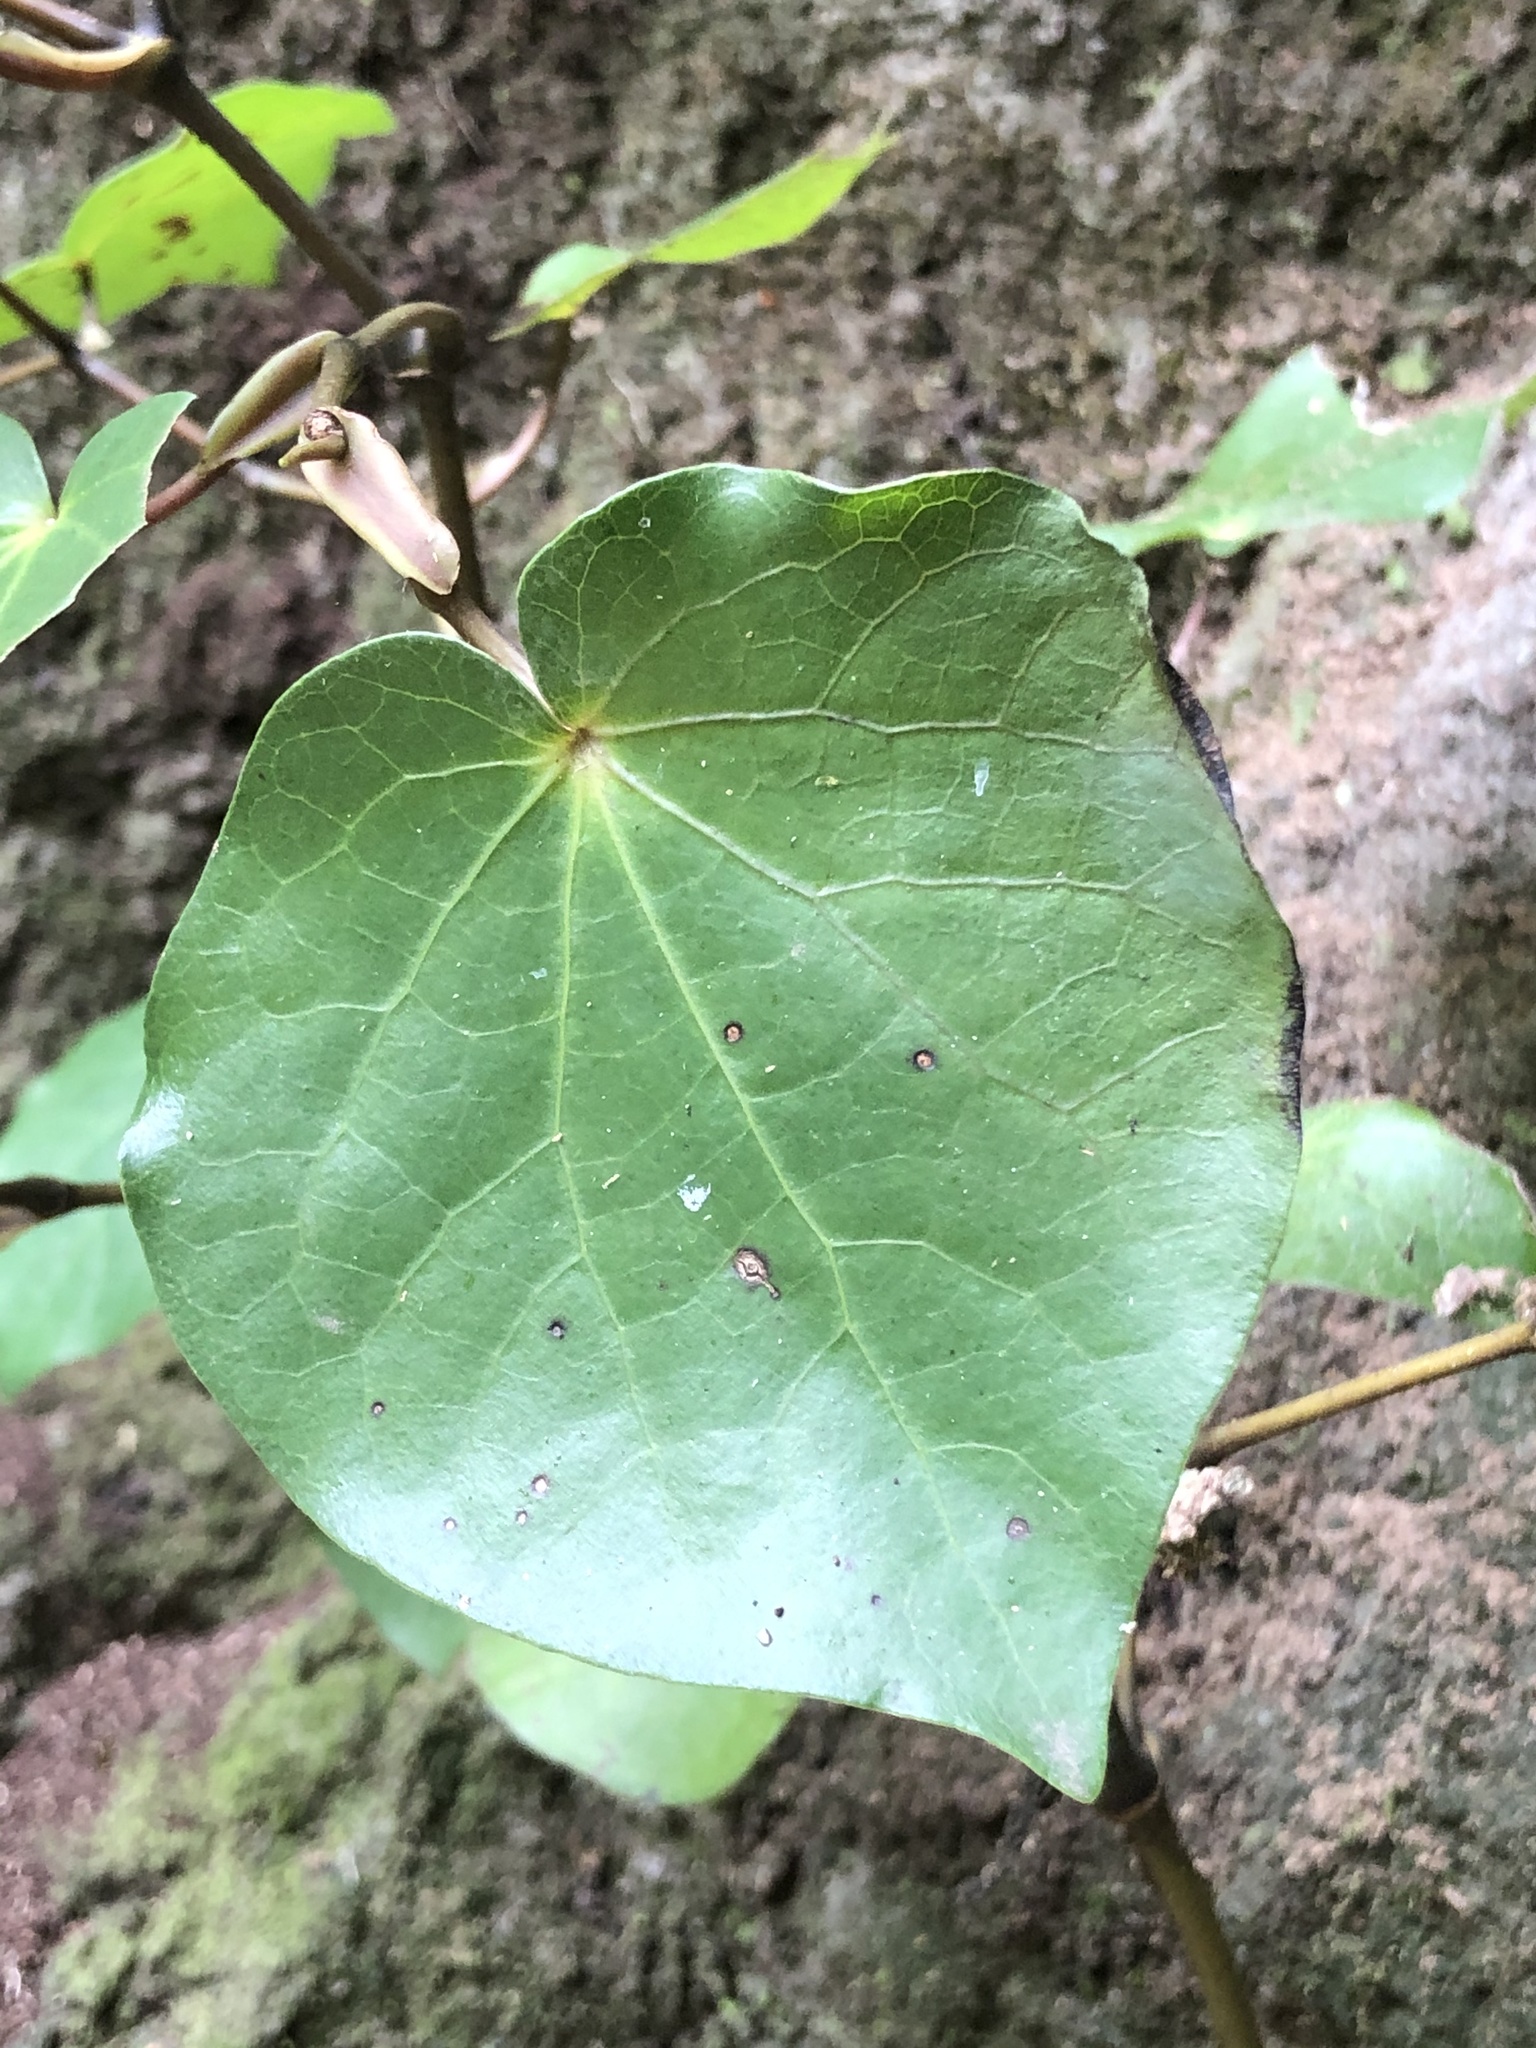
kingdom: Plantae
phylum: Tracheophyta
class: Magnoliopsida
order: Piperales
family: Piperaceae
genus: Macropiper
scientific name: Macropiper excelsum
